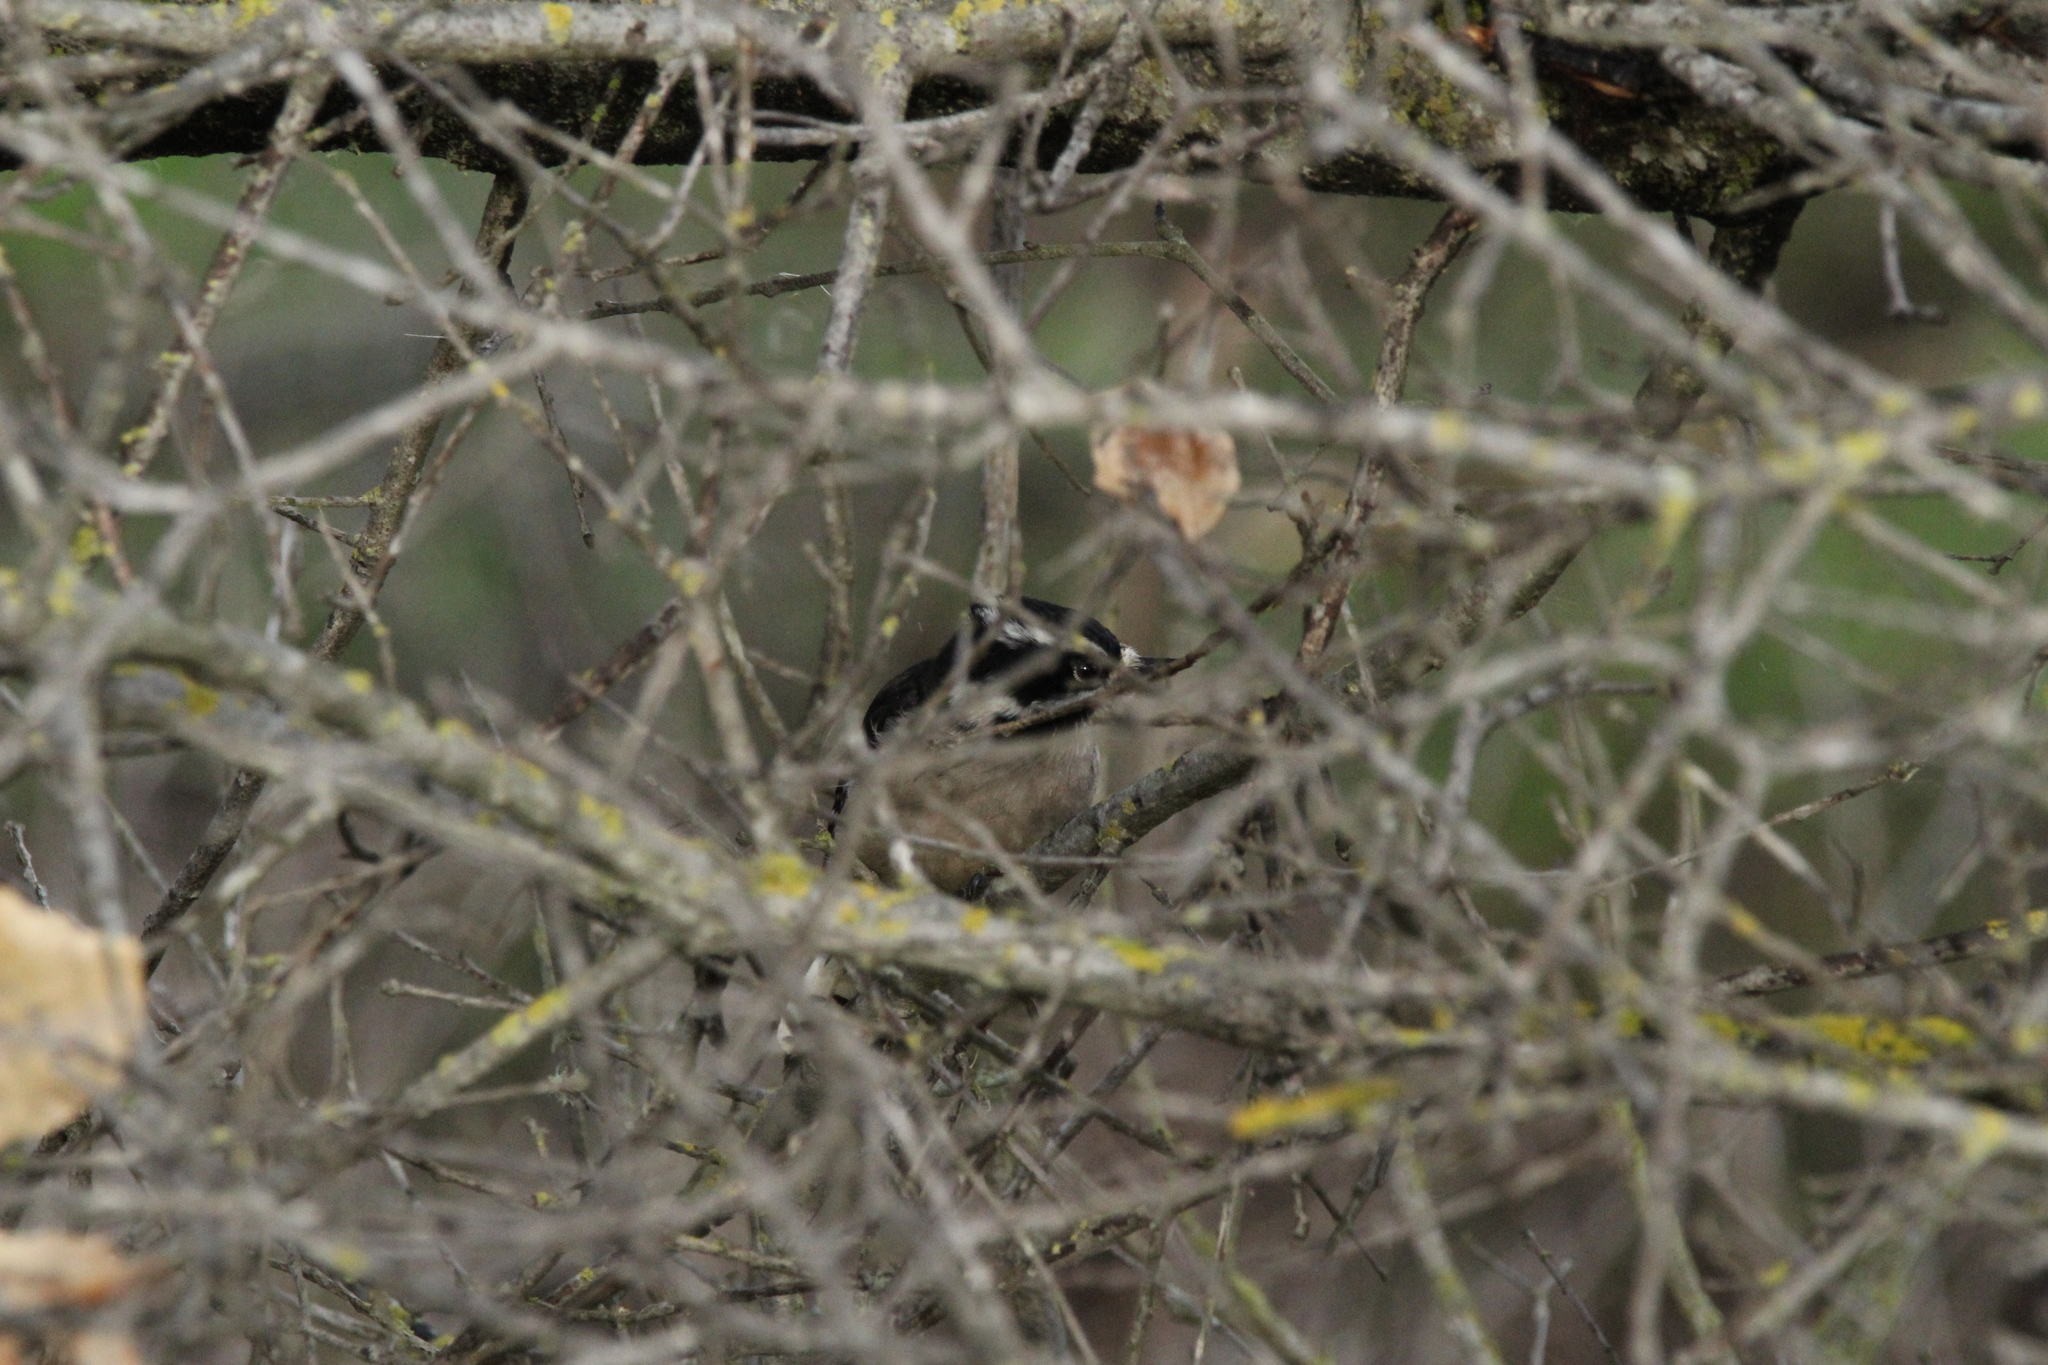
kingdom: Animalia
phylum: Chordata
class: Aves
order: Piciformes
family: Picidae
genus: Dryobates
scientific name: Dryobates pubescens
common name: Downy woodpecker
